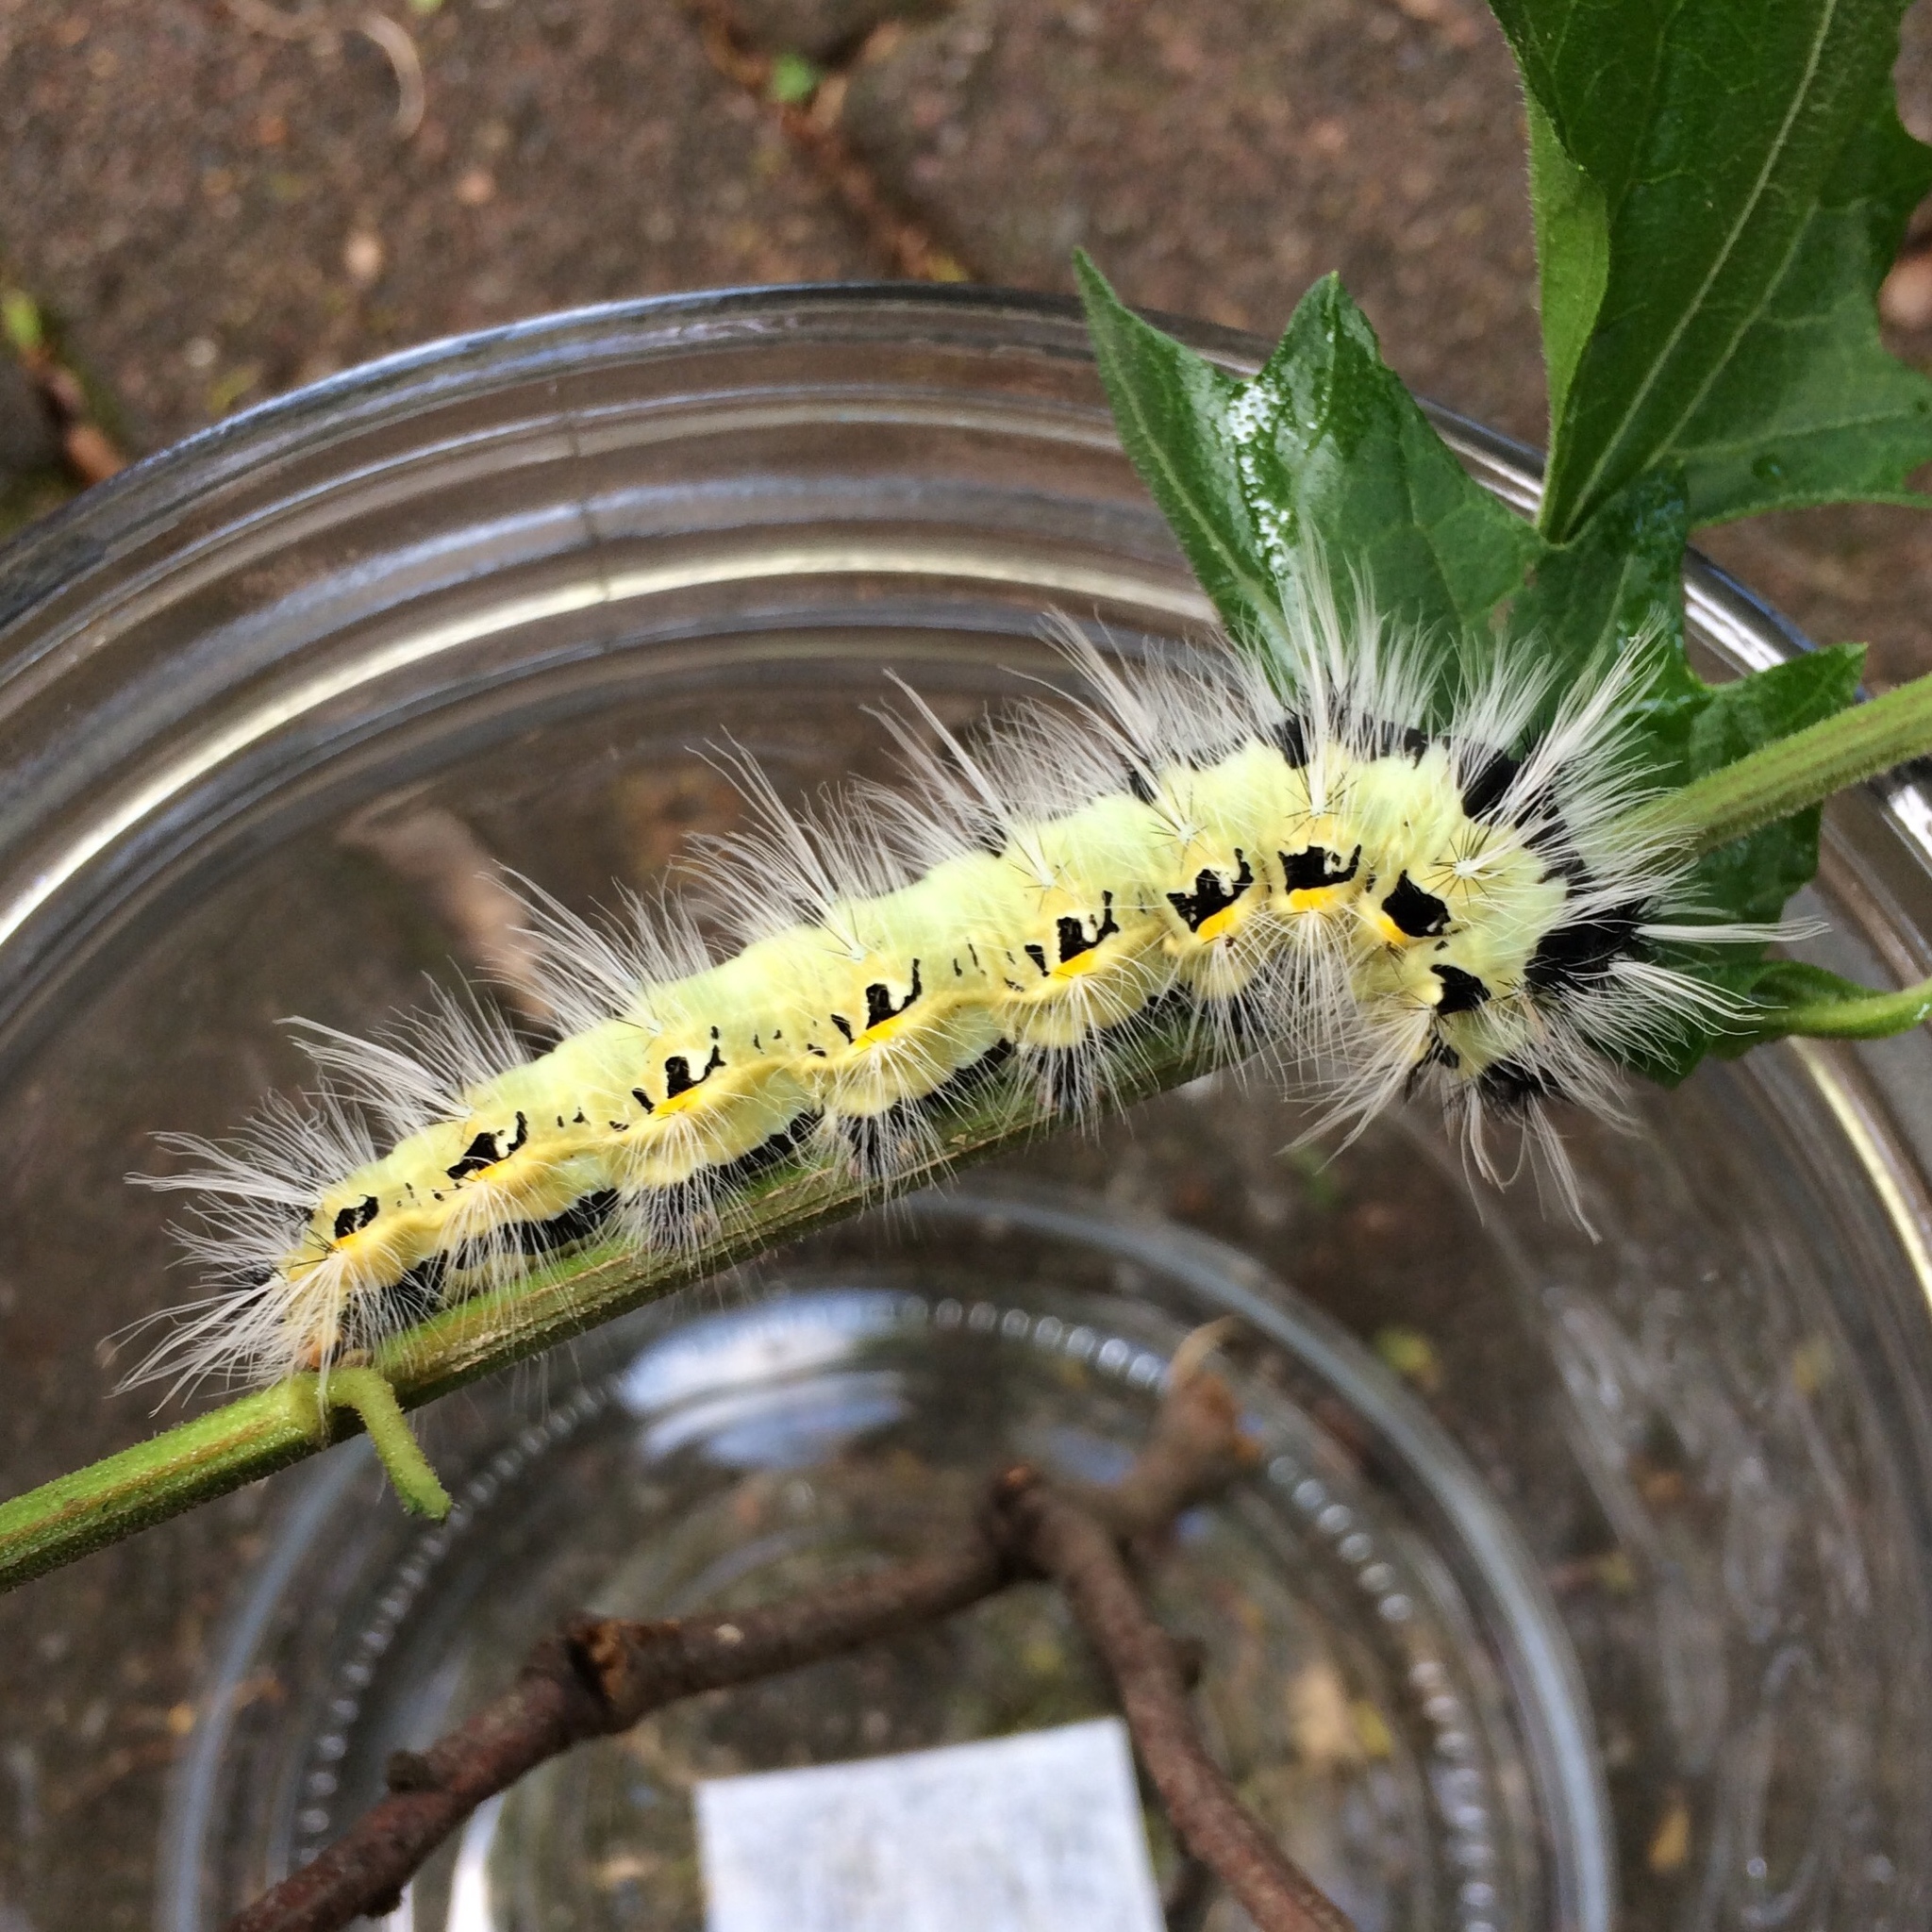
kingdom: Animalia
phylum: Arthropoda
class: Insecta
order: Lepidoptera
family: Saturniidae
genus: Ludia
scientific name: Ludia delegorguei
